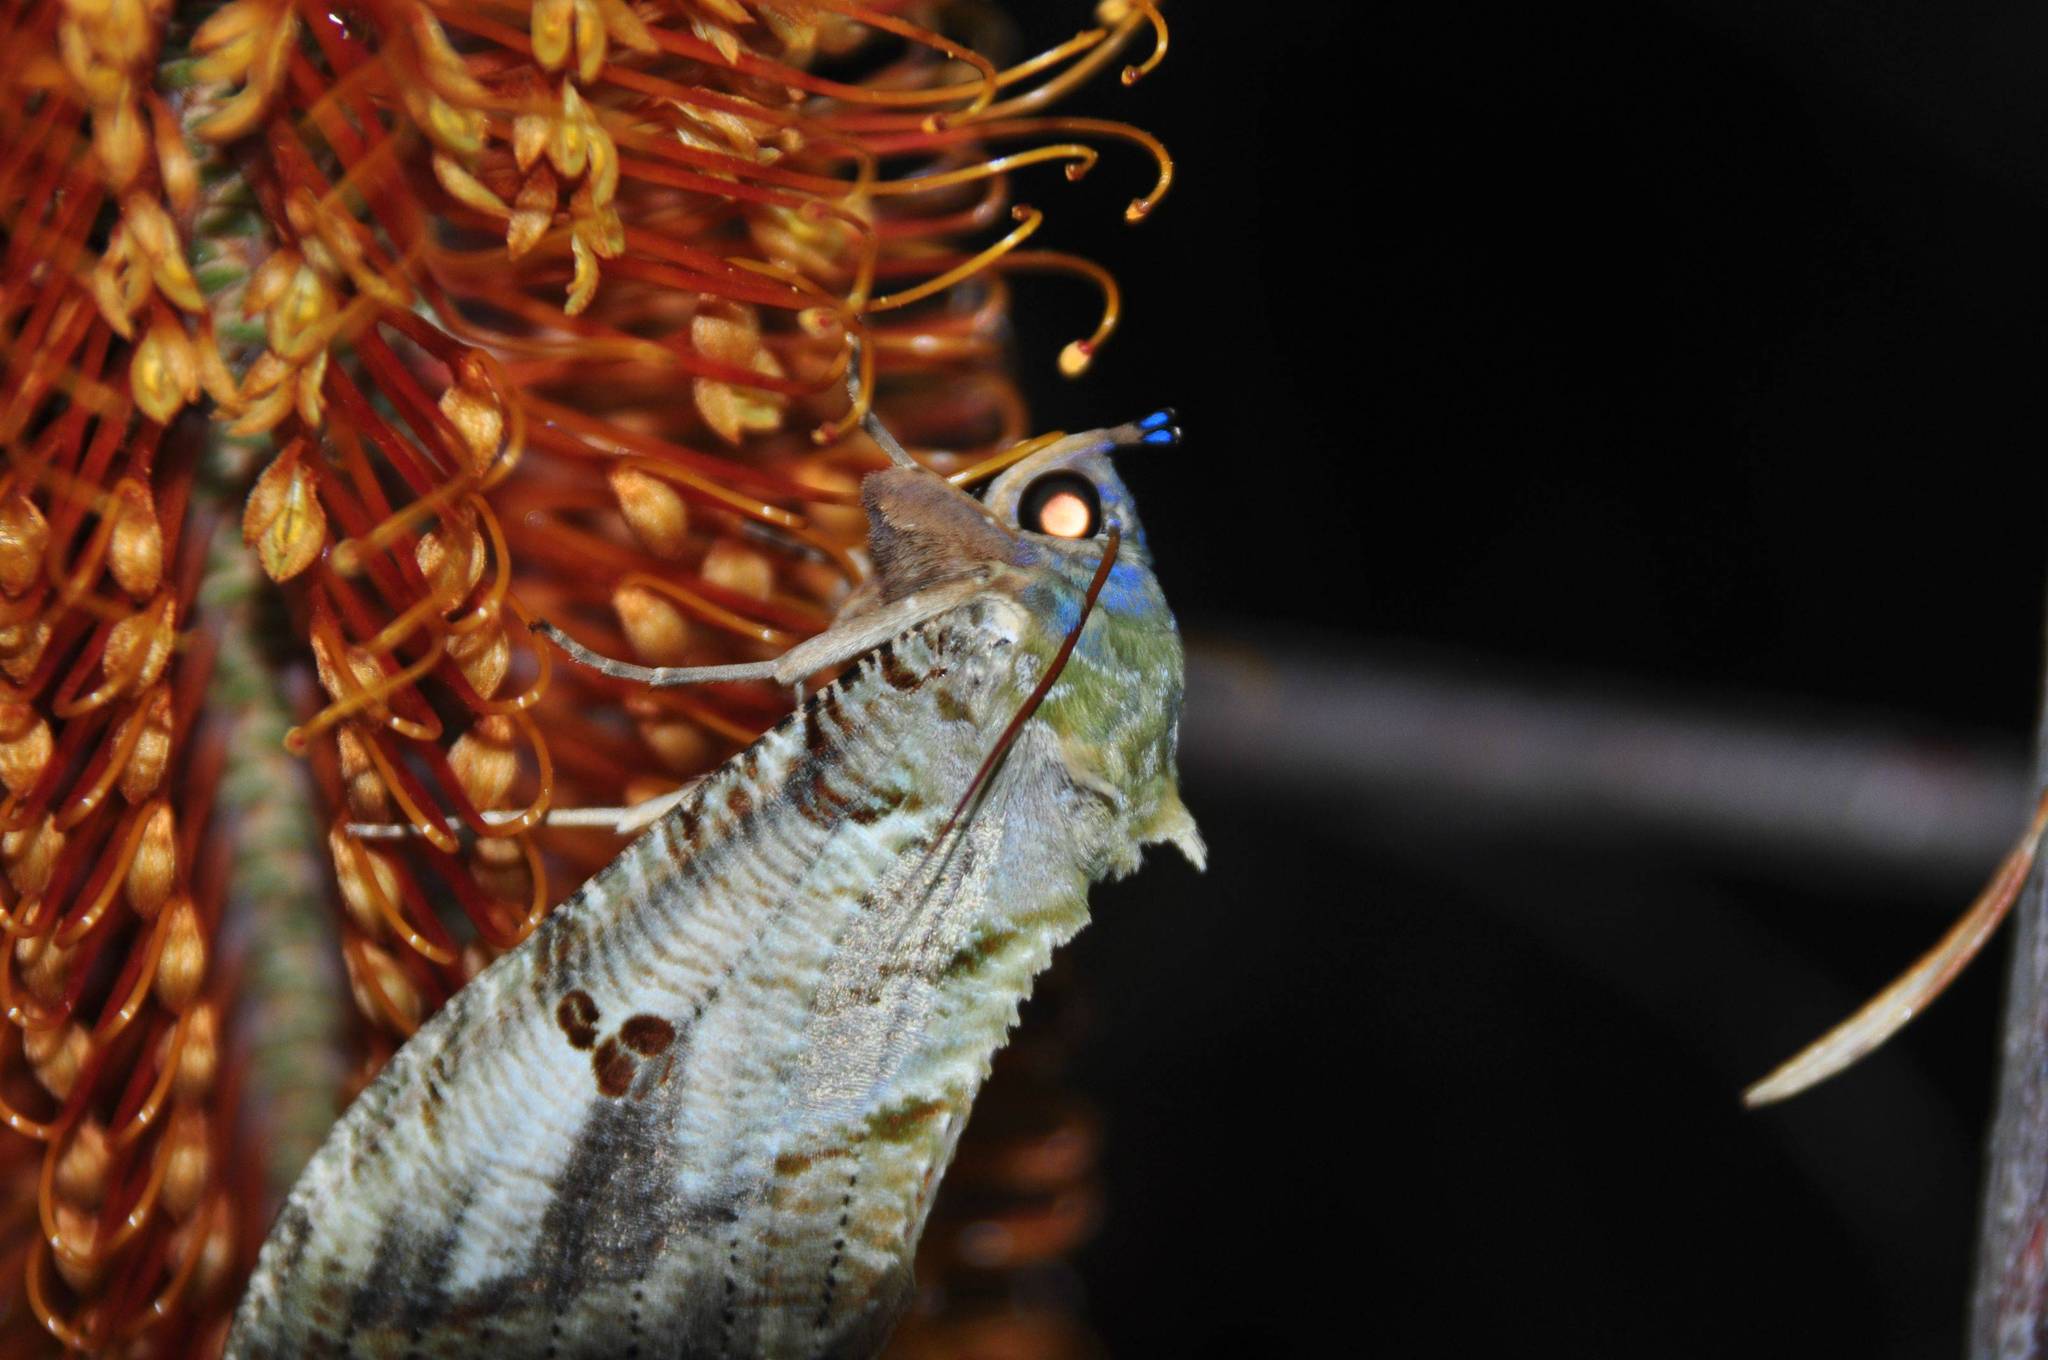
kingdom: Animalia
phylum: Arthropoda
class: Insecta
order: Lepidoptera
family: Erebidae
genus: Eudocima
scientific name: Eudocima materna
